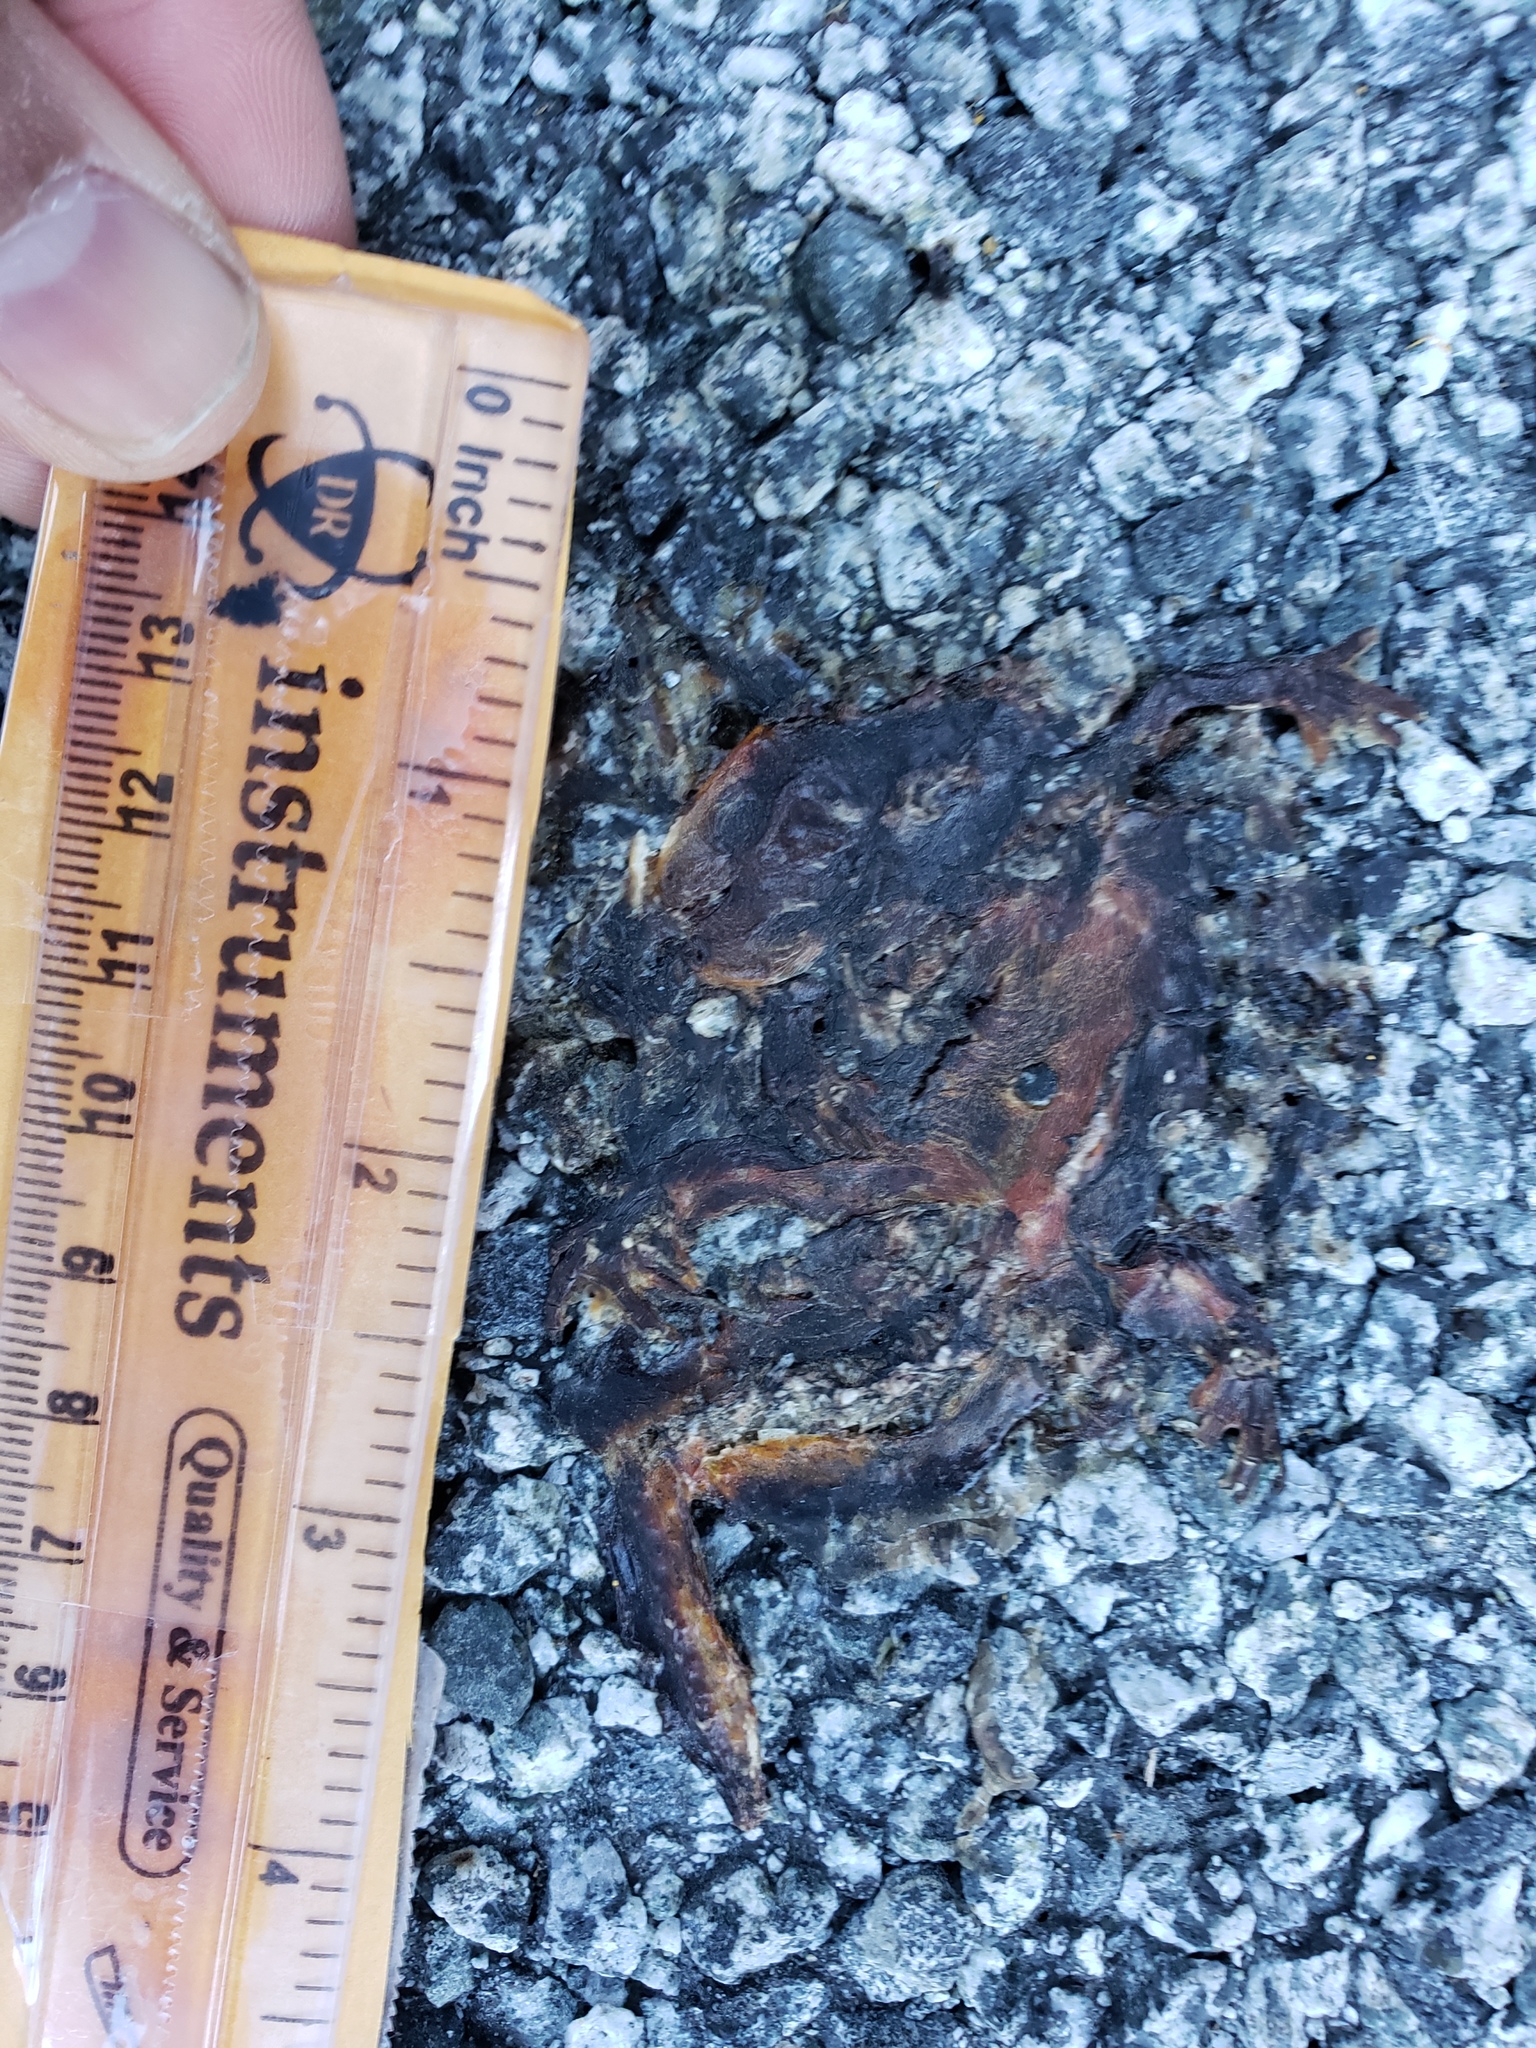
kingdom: Animalia
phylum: Chordata
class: Amphibia
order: Caudata
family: Salamandridae
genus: Taricha
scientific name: Taricha
